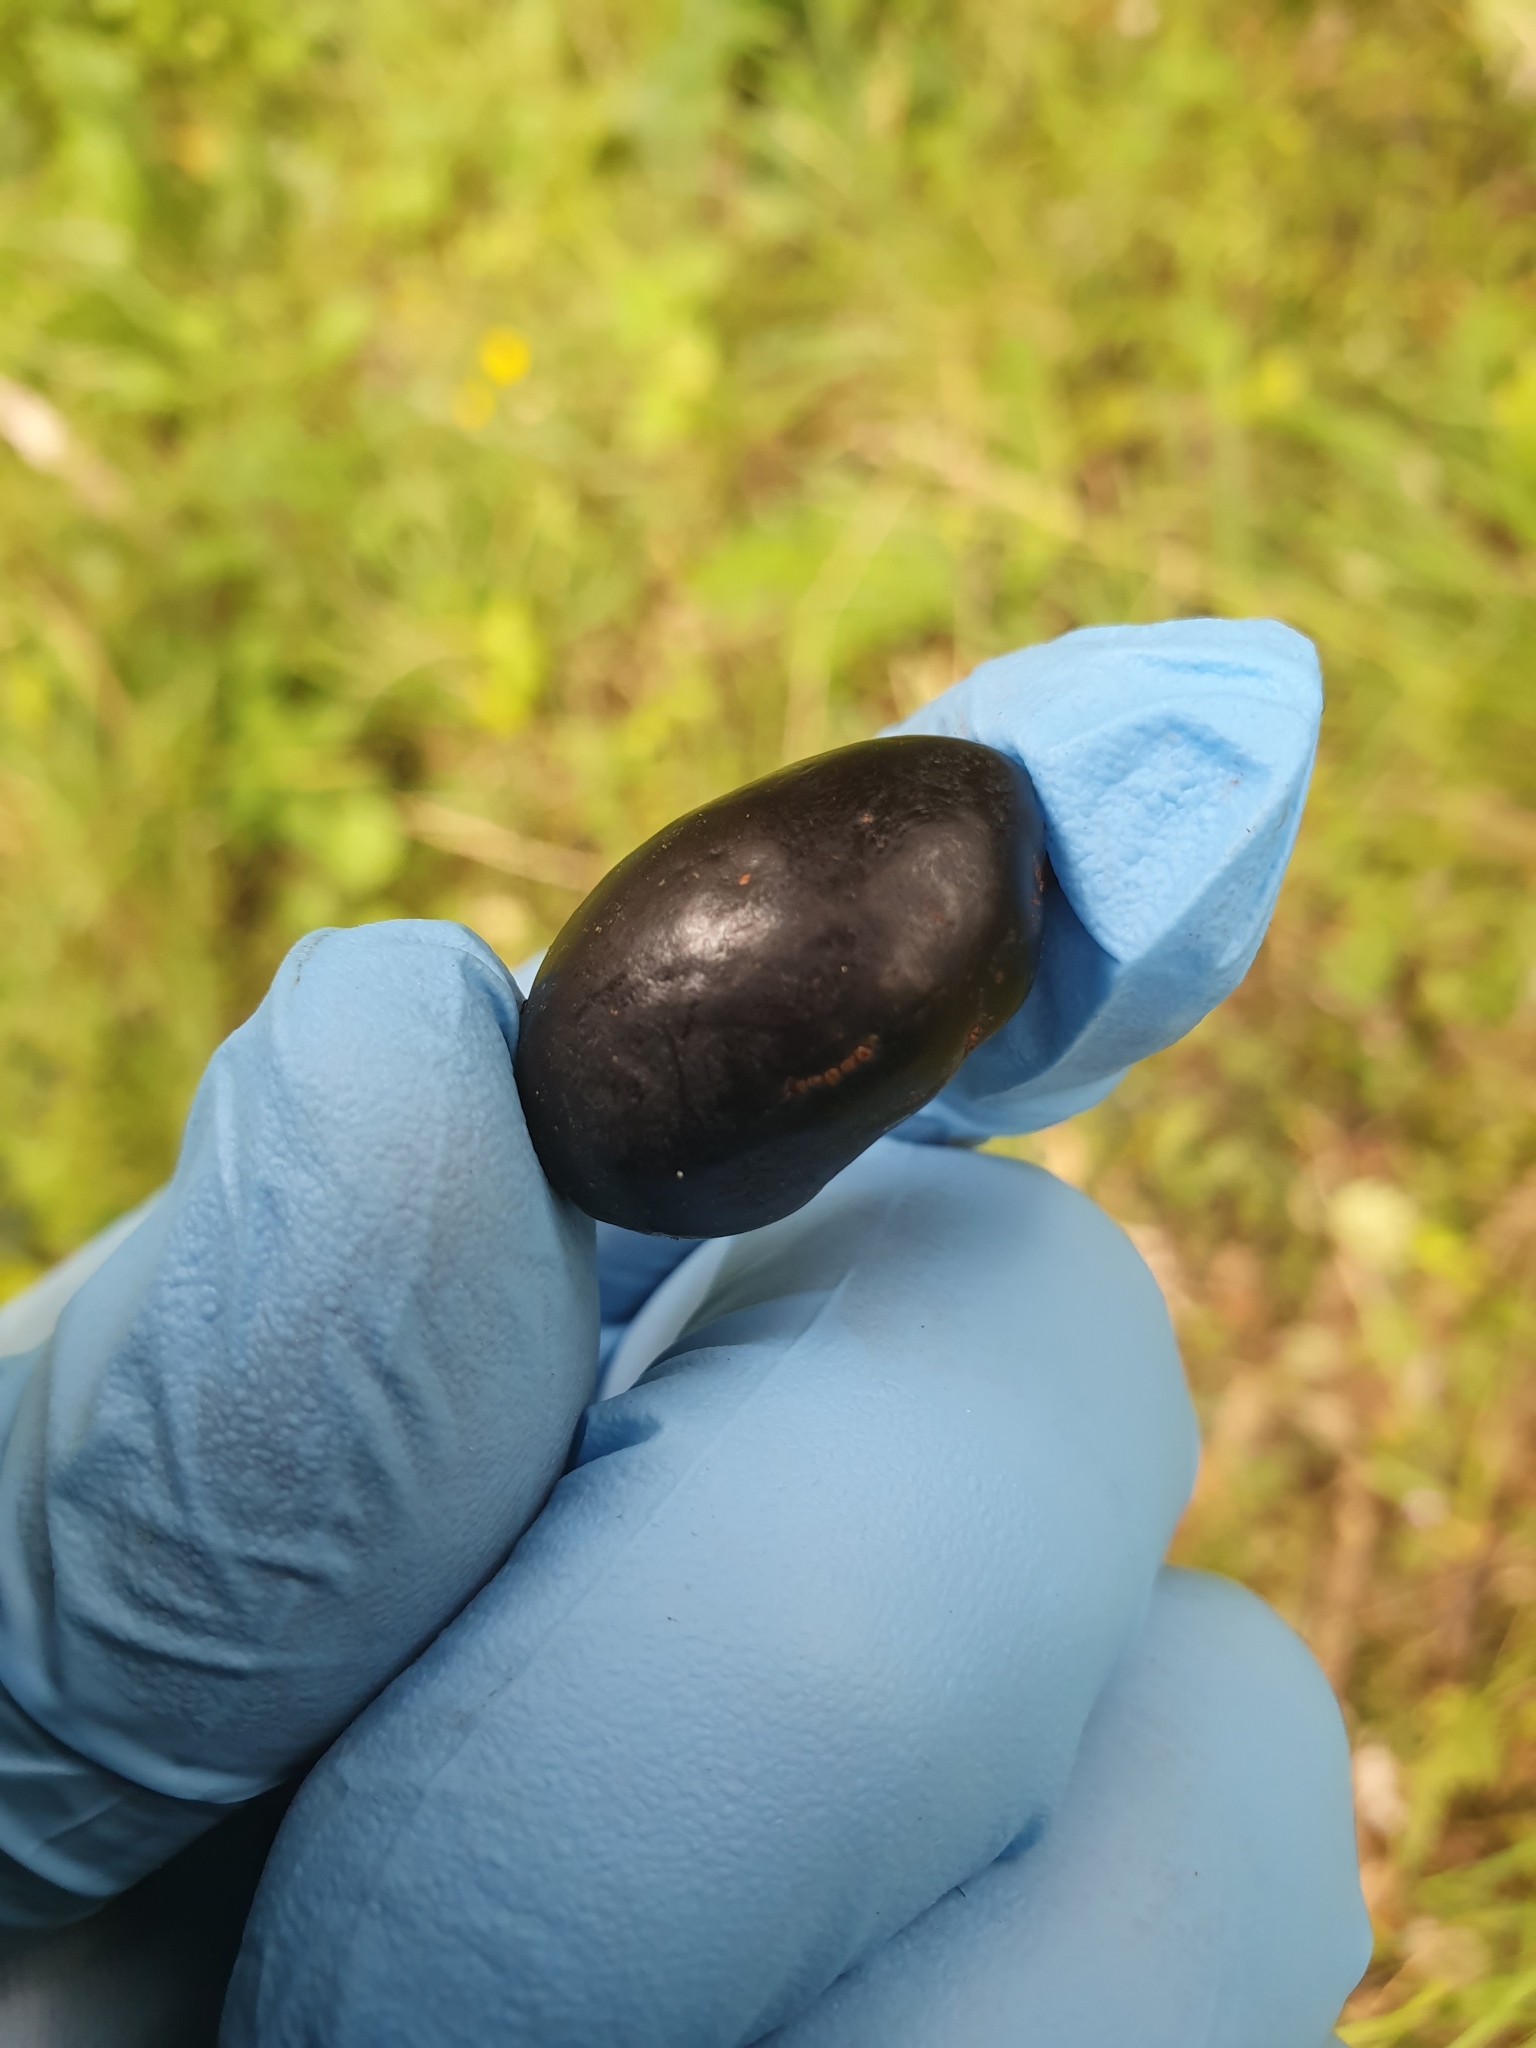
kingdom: Plantae
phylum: Tracheophyta
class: Magnoliopsida
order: Laurales
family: Lauraceae
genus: Beilschmiedia
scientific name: Beilschmiedia tawa
